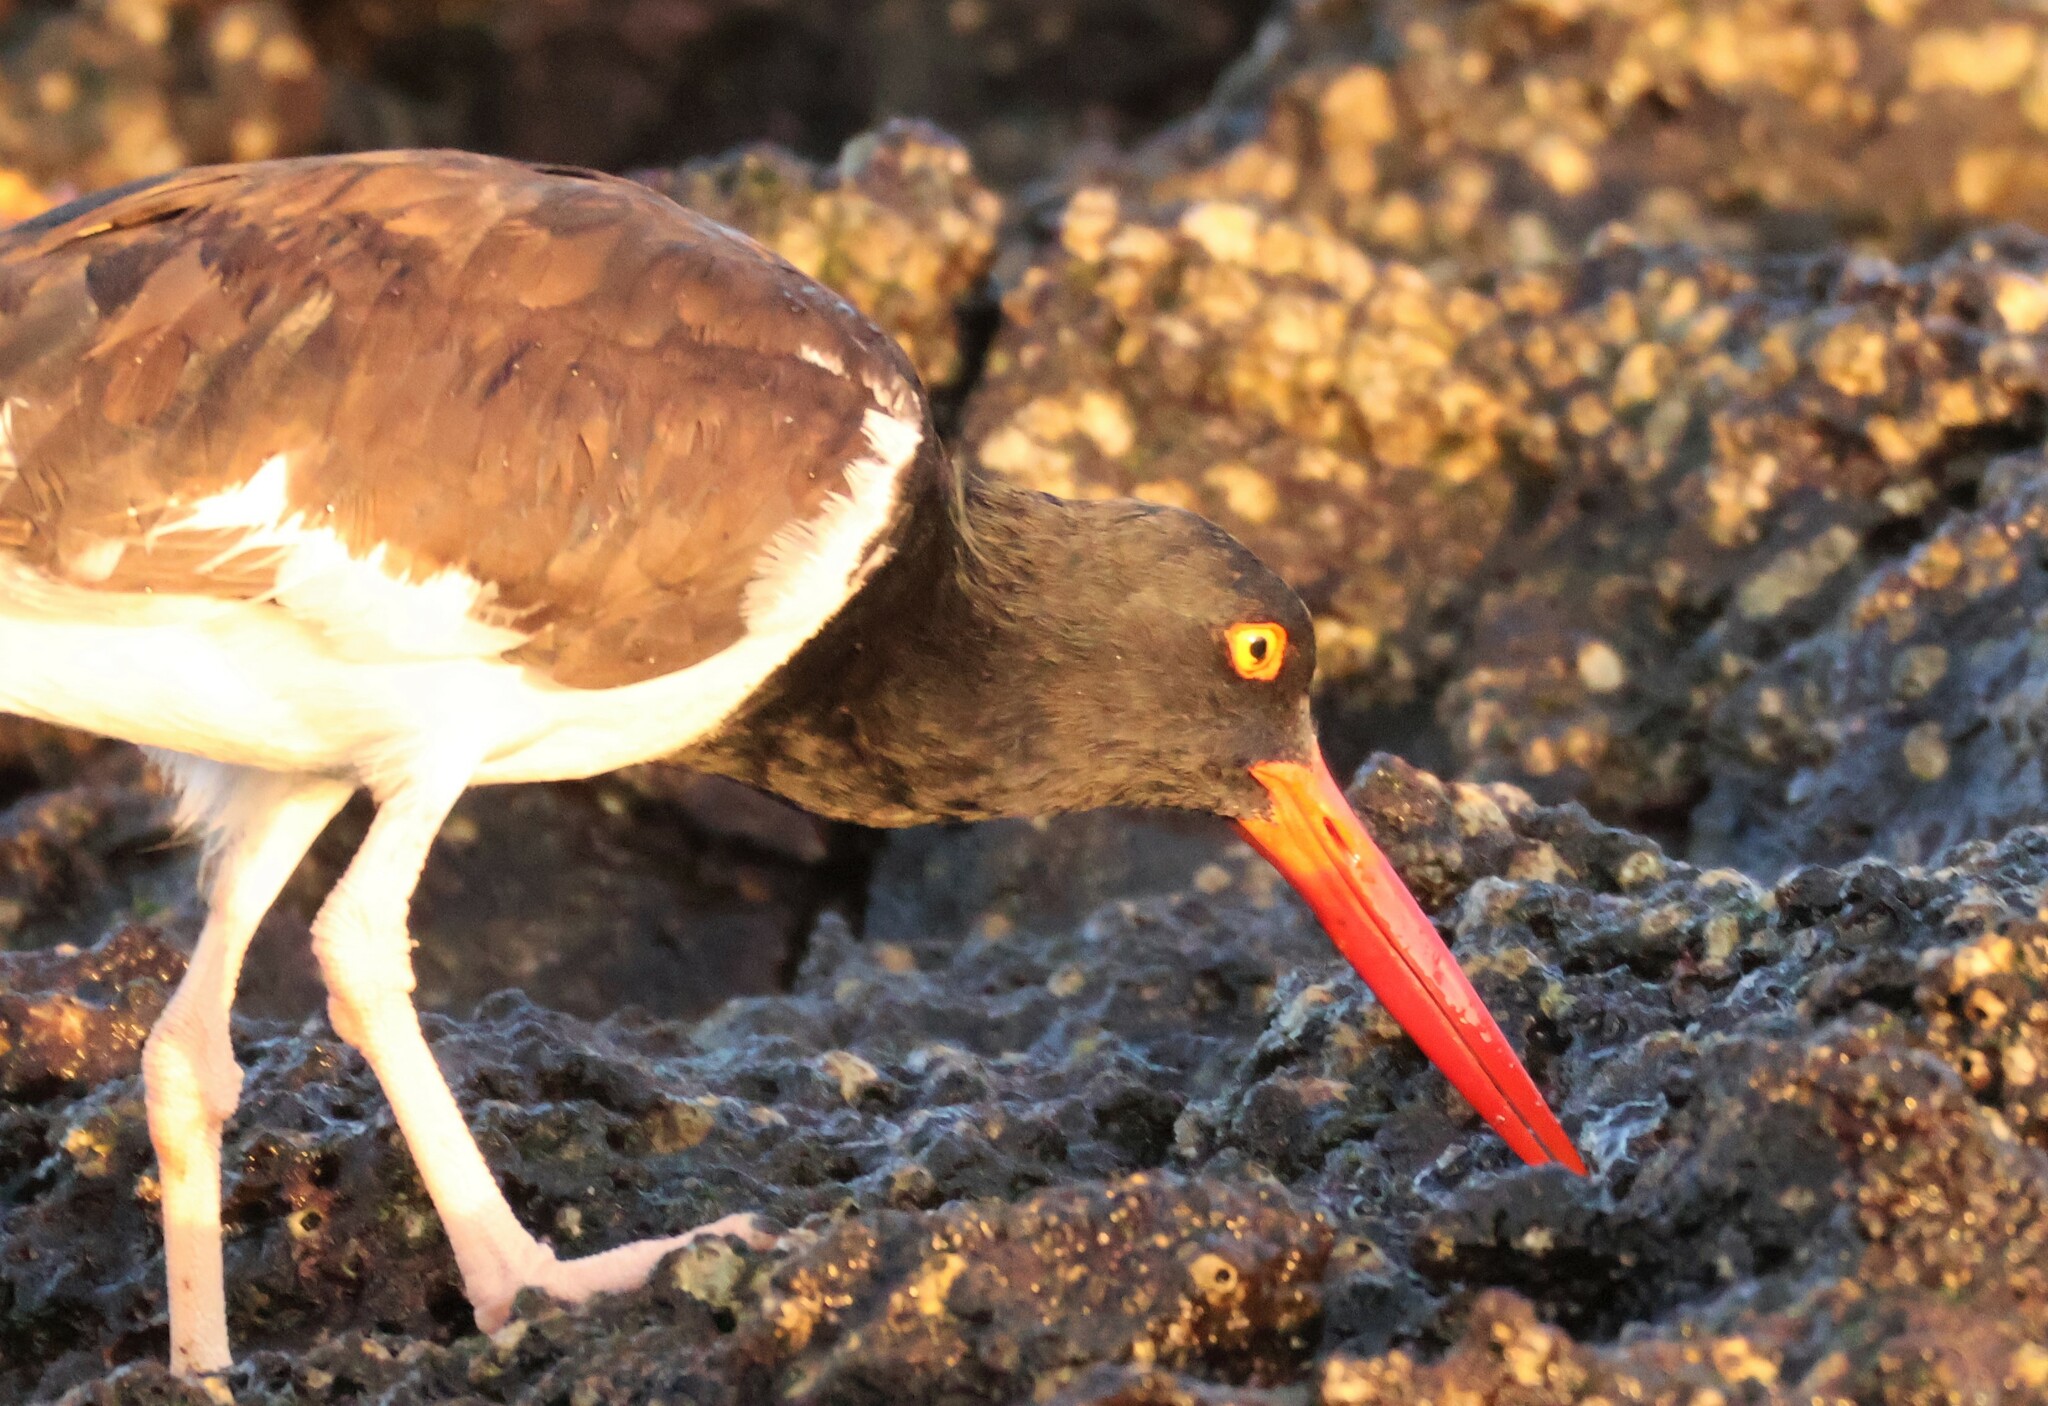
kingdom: Animalia
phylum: Chordata
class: Aves
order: Charadriiformes
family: Haematopodidae
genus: Haematopus
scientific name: Haematopus palliatus
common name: American oystercatcher
